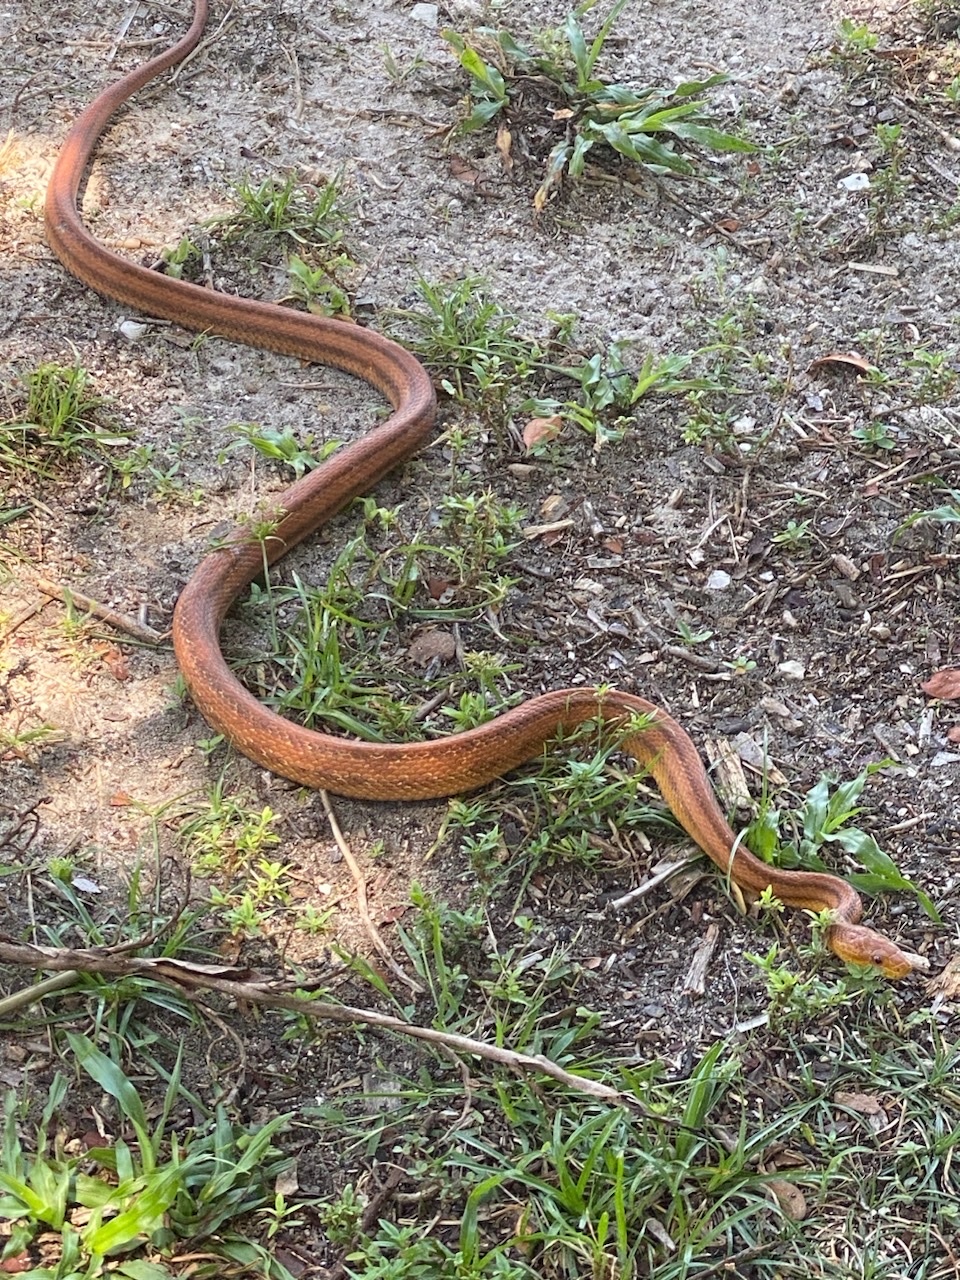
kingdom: Animalia
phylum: Chordata
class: Squamata
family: Colubridae
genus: Pantherophis
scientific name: Pantherophis alleghaniensis
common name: Eastern rat snake
